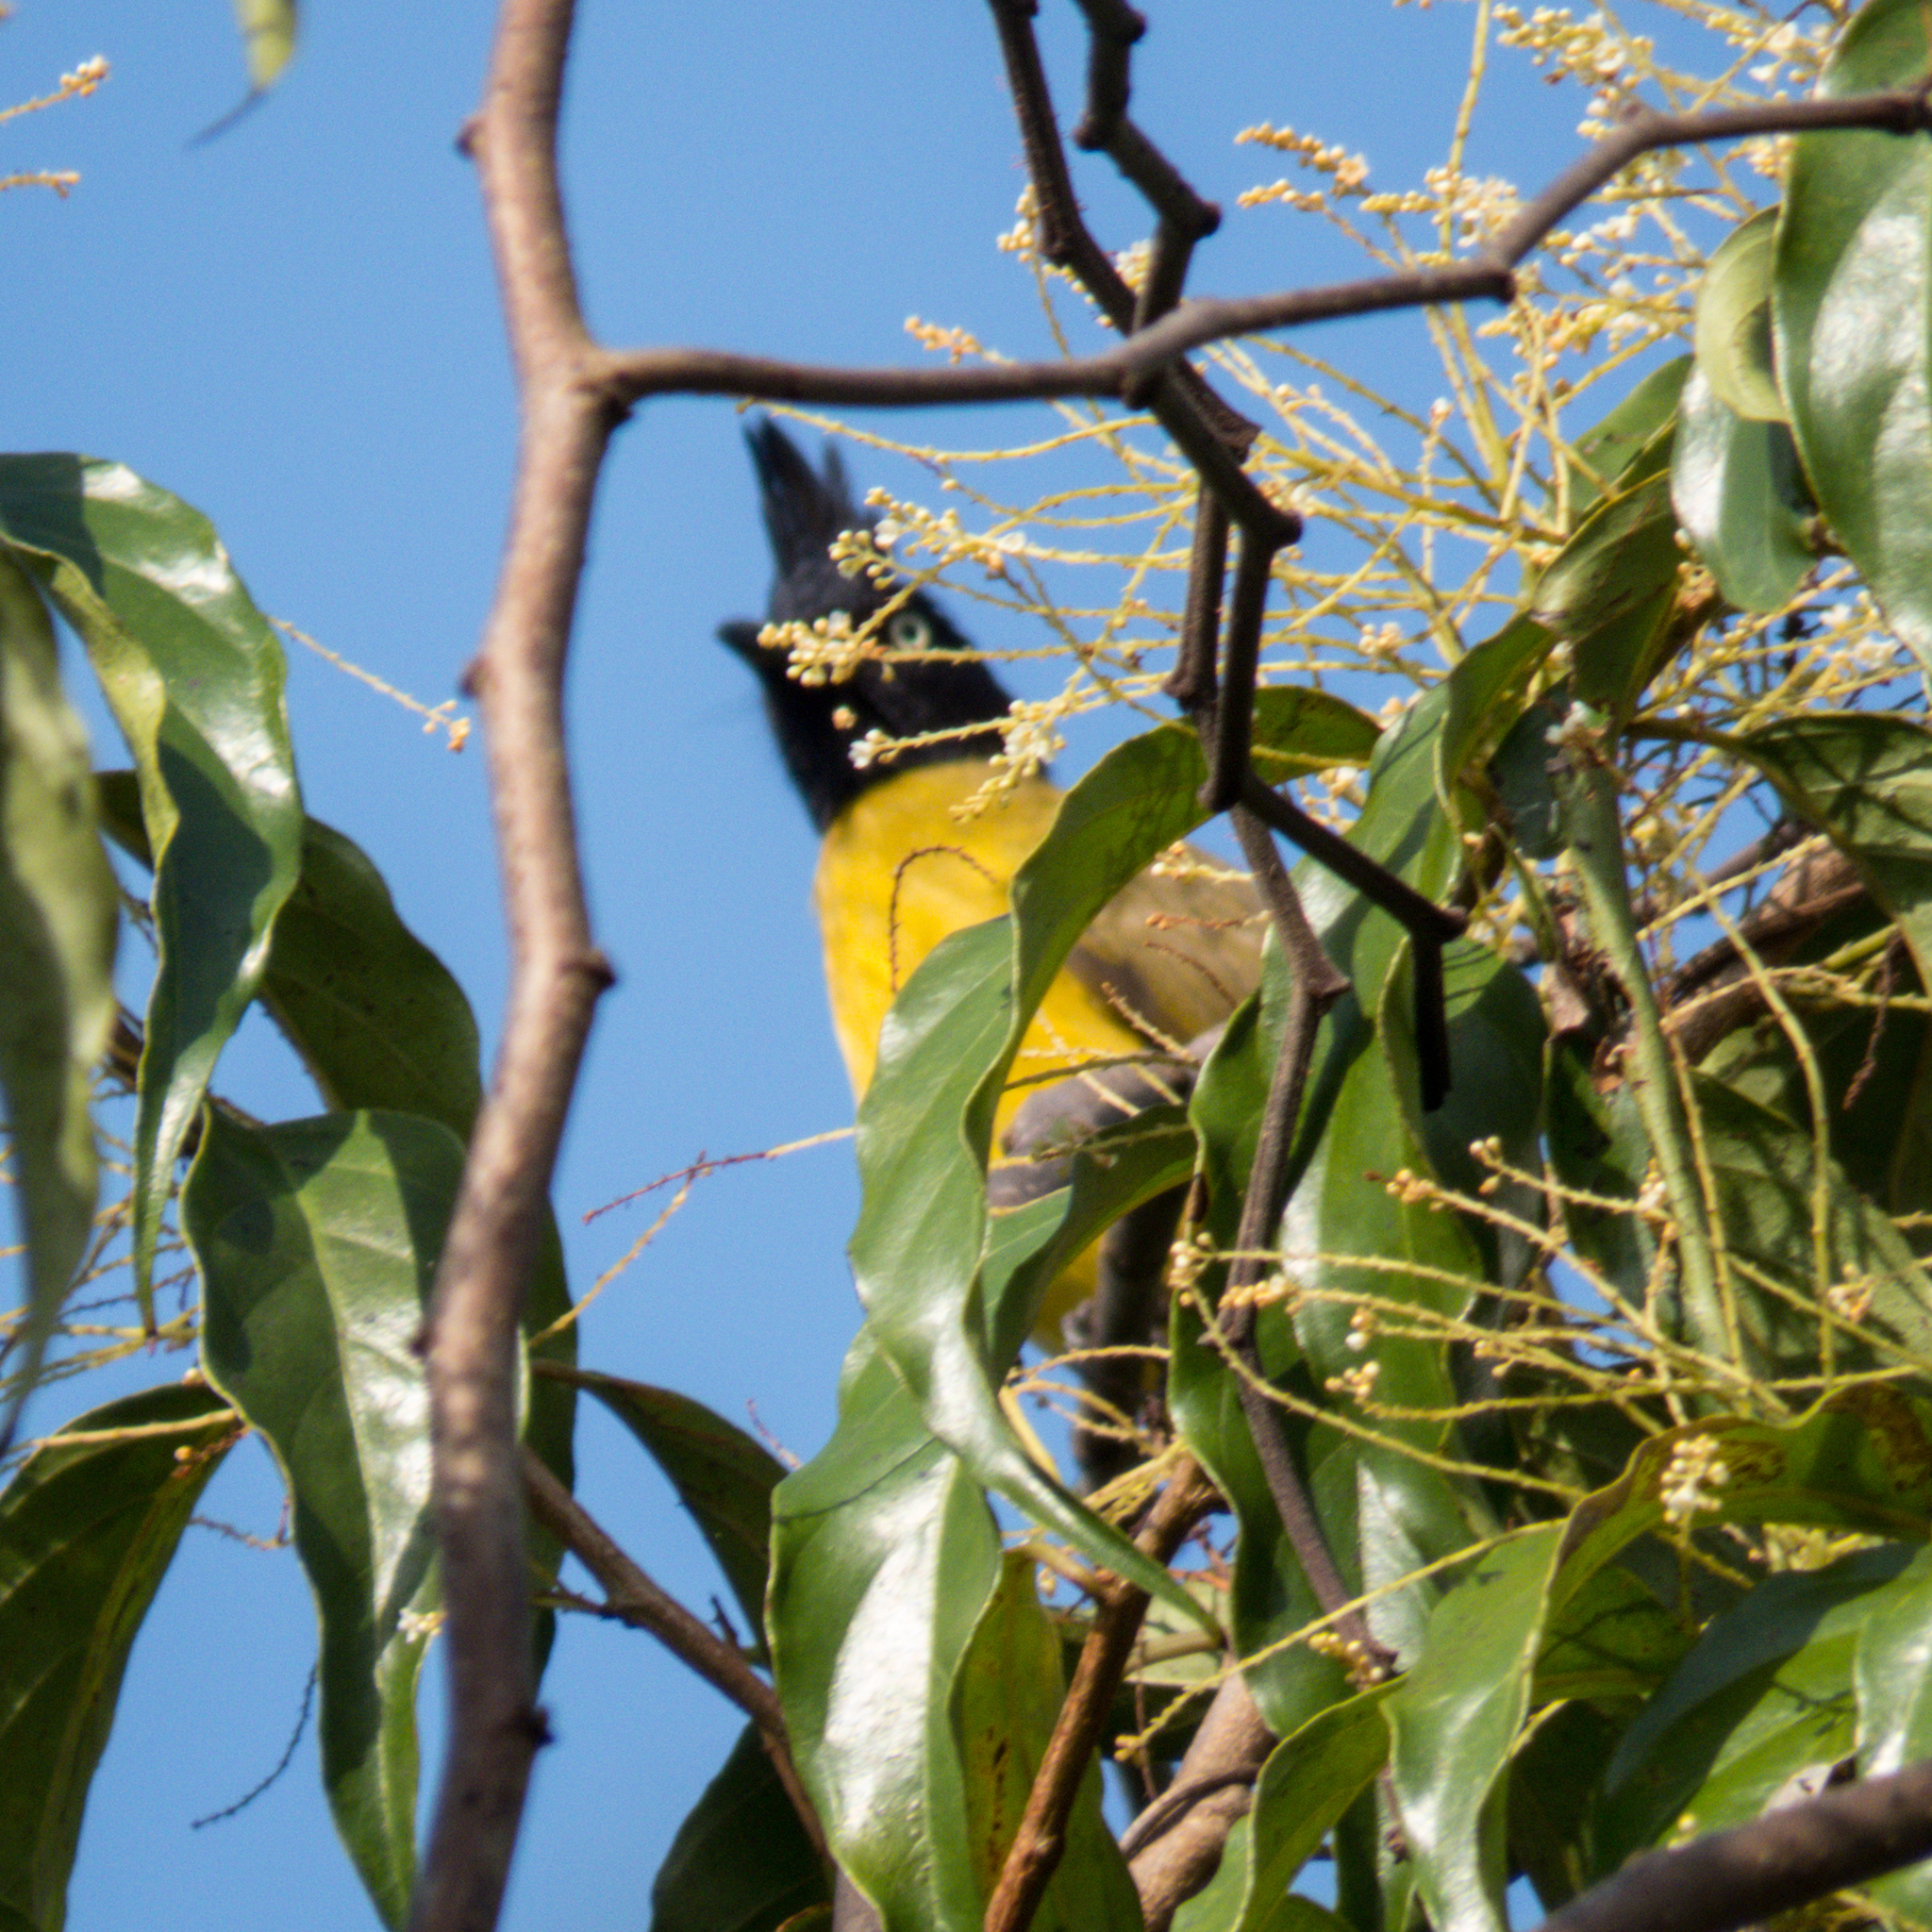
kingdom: Animalia
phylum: Chordata
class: Aves
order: Passeriformes
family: Pycnonotidae
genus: Pycnonotus
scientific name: Pycnonotus flaviventris
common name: Black-crested bulbul
